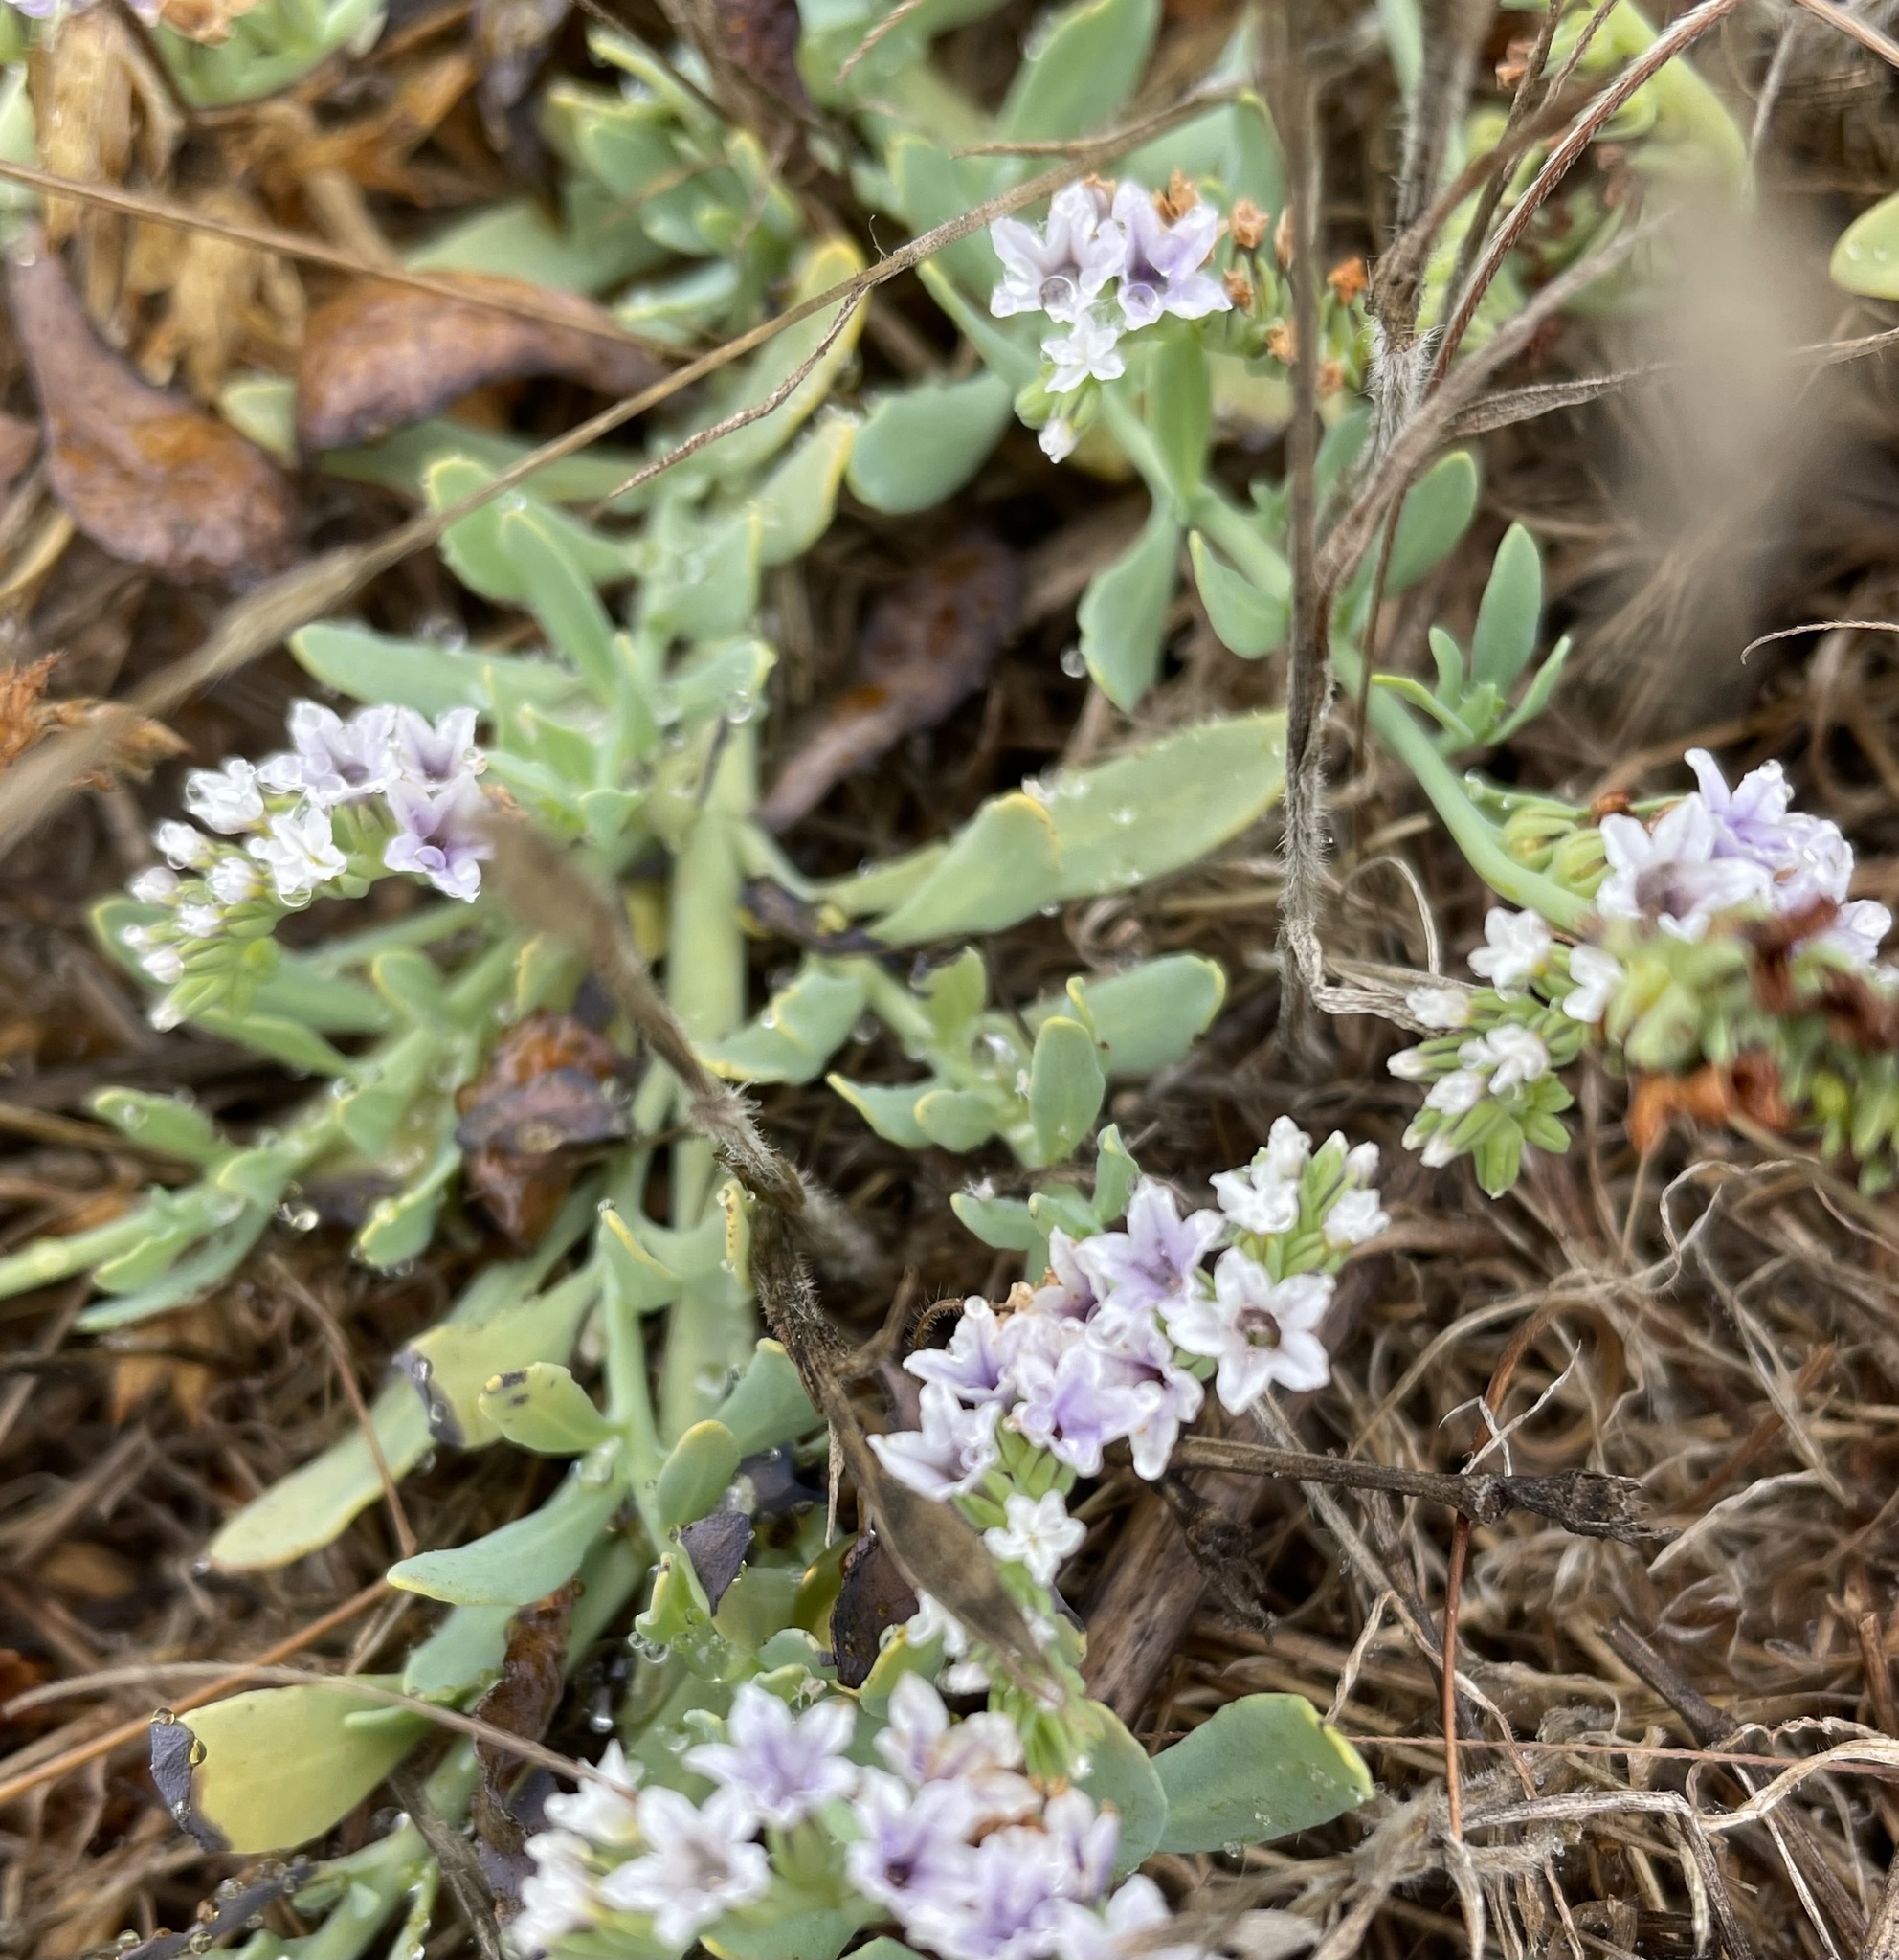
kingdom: Plantae
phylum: Tracheophyta
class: Magnoliopsida
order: Boraginales
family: Heliotropiaceae
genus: Heliotropium
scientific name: Heliotropium curassavicum
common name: Seaside heliotrope
